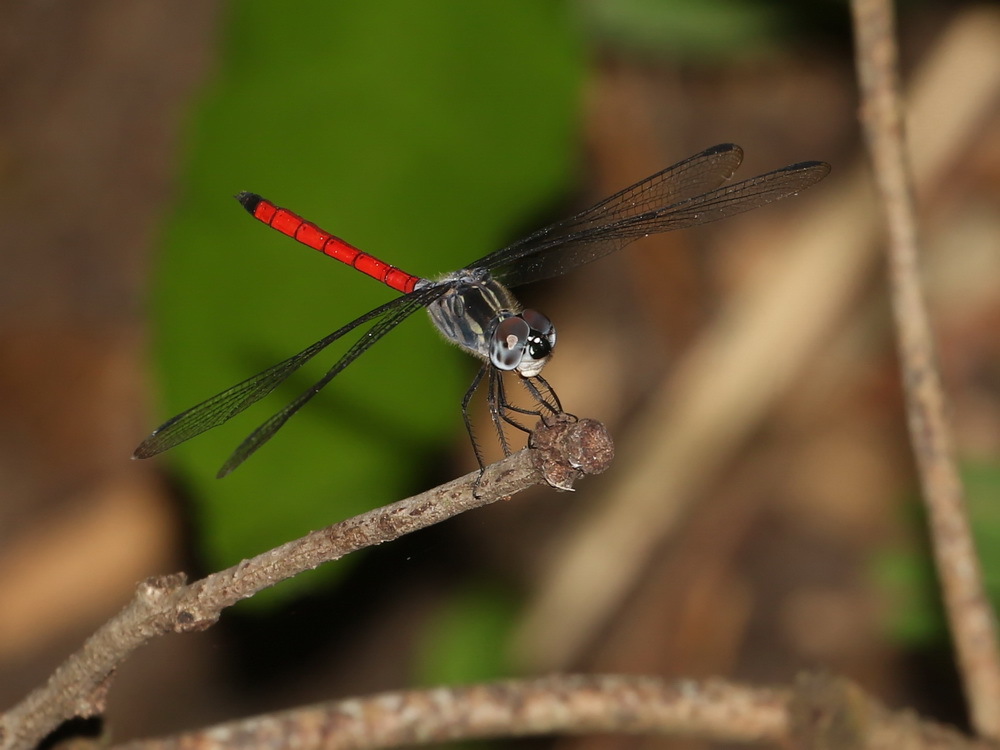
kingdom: Animalia
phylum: Arthropoda
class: Insecta
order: Odonata
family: Libellulidae
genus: Lathrecista
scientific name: Lathrecista asiatica
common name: Scarlet grenadier
